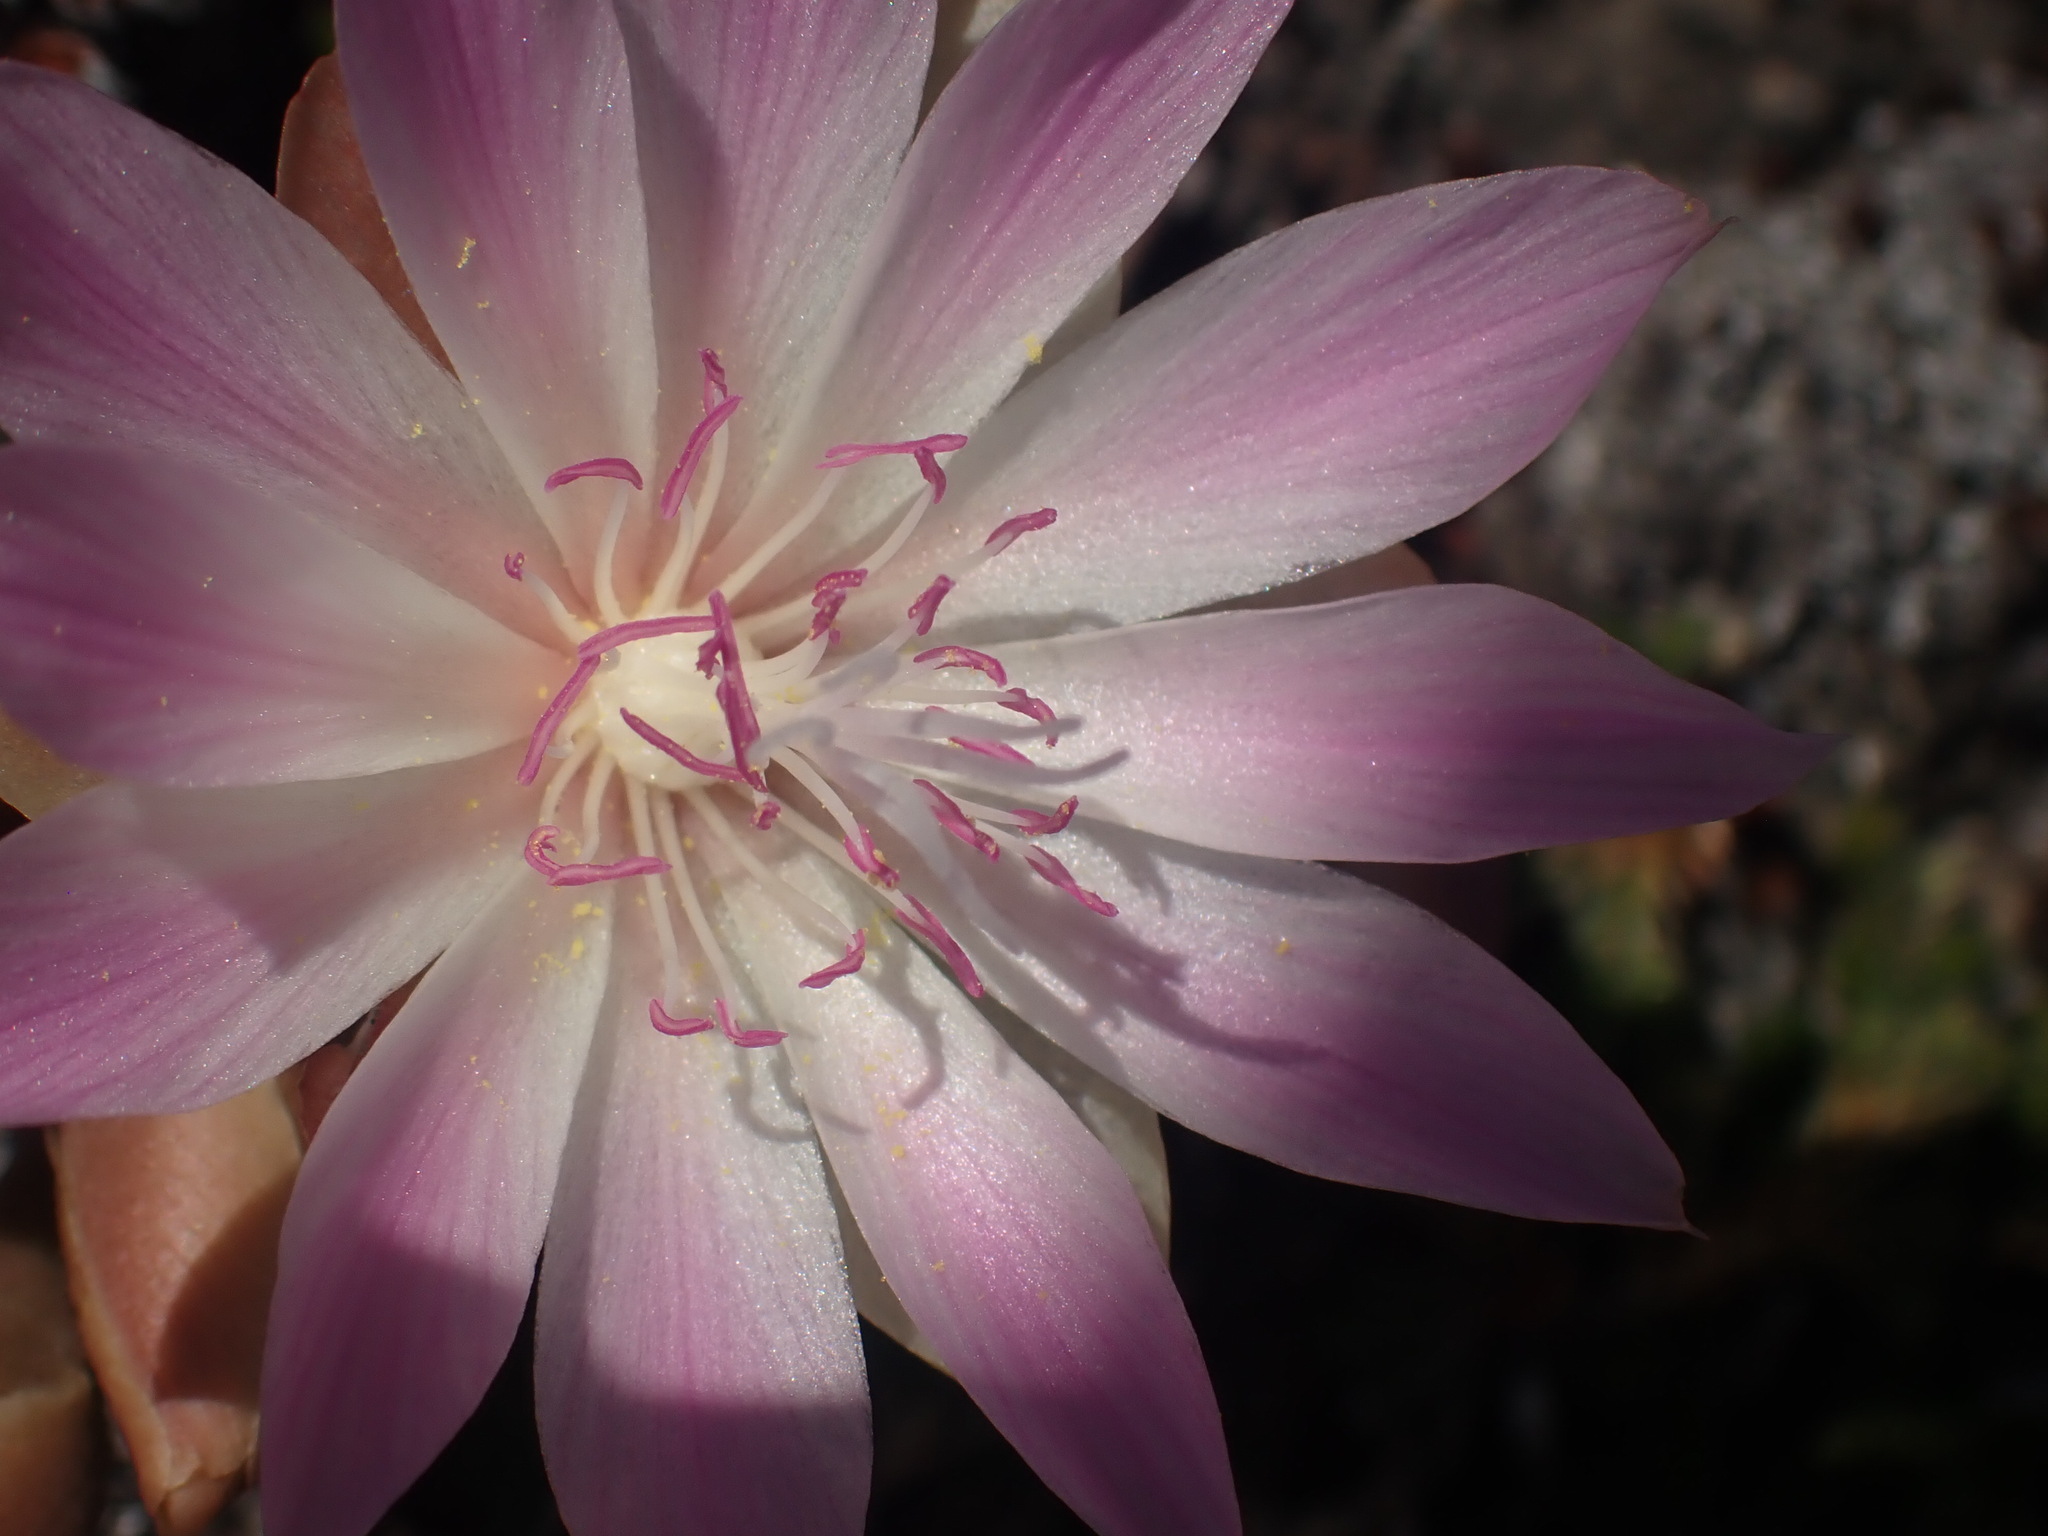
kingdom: Plantae
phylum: Tracheophyta
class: Magnoliopsida
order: Caryophyllales
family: Montiaceae
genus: Lewisia
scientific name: Lewisia rediviva
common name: Bitter-root
